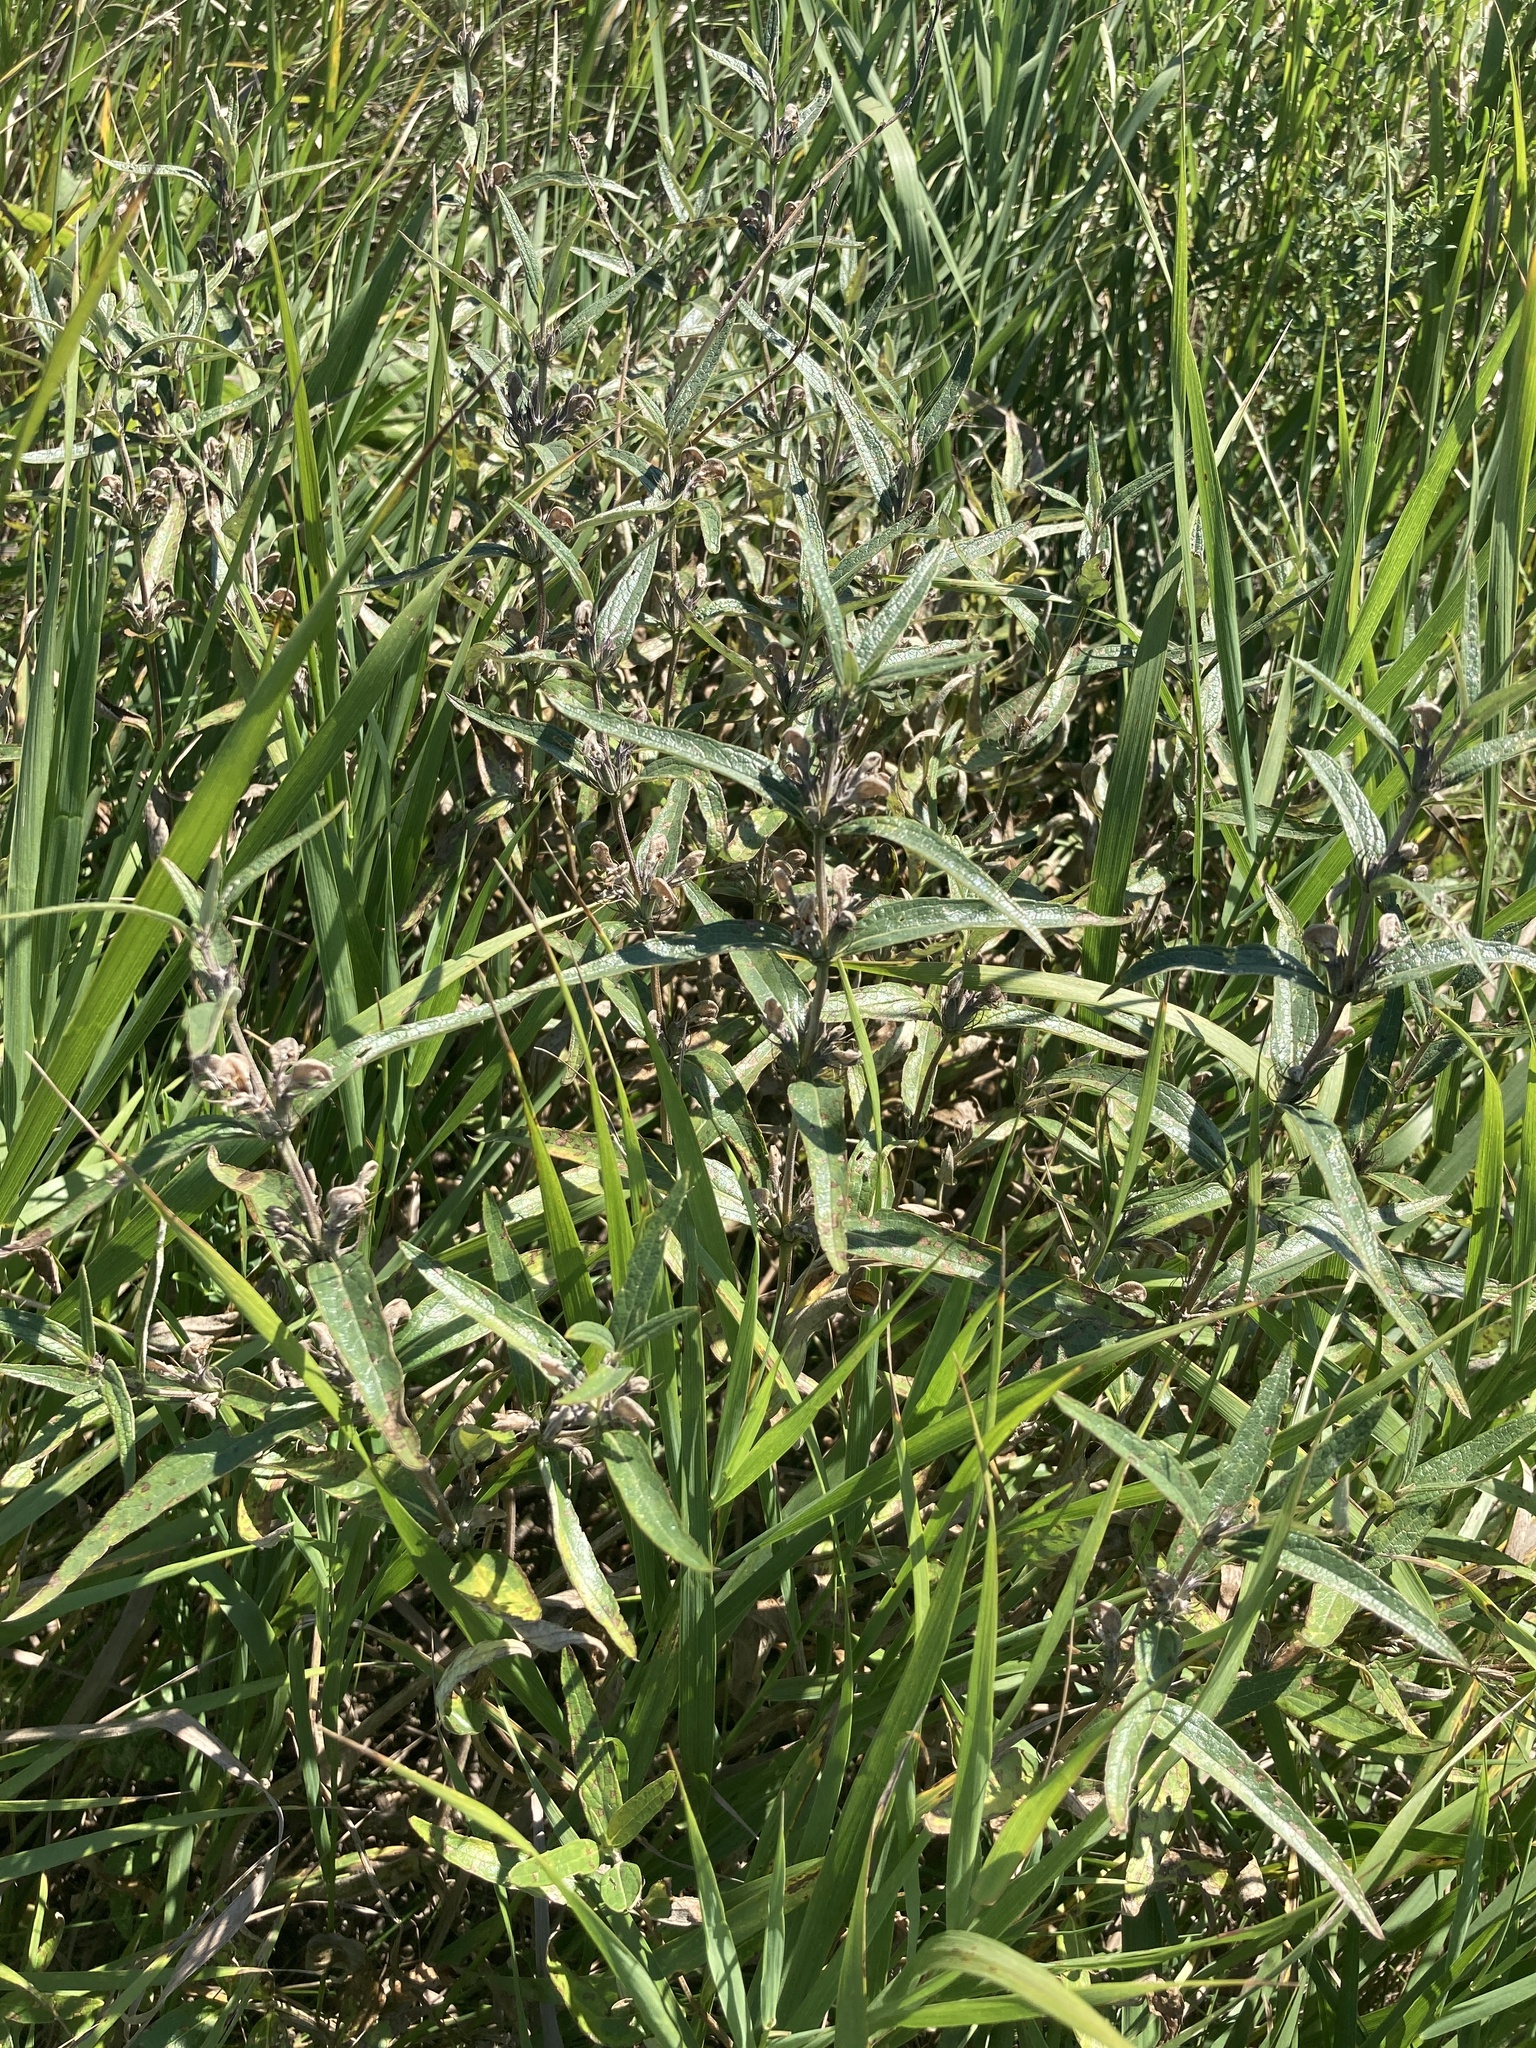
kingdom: Plantae
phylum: Tracheophyta
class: Magnoliopsida
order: Lamiales
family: Lamiaceae
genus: Phlomis
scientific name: Phlomis herba-venti
